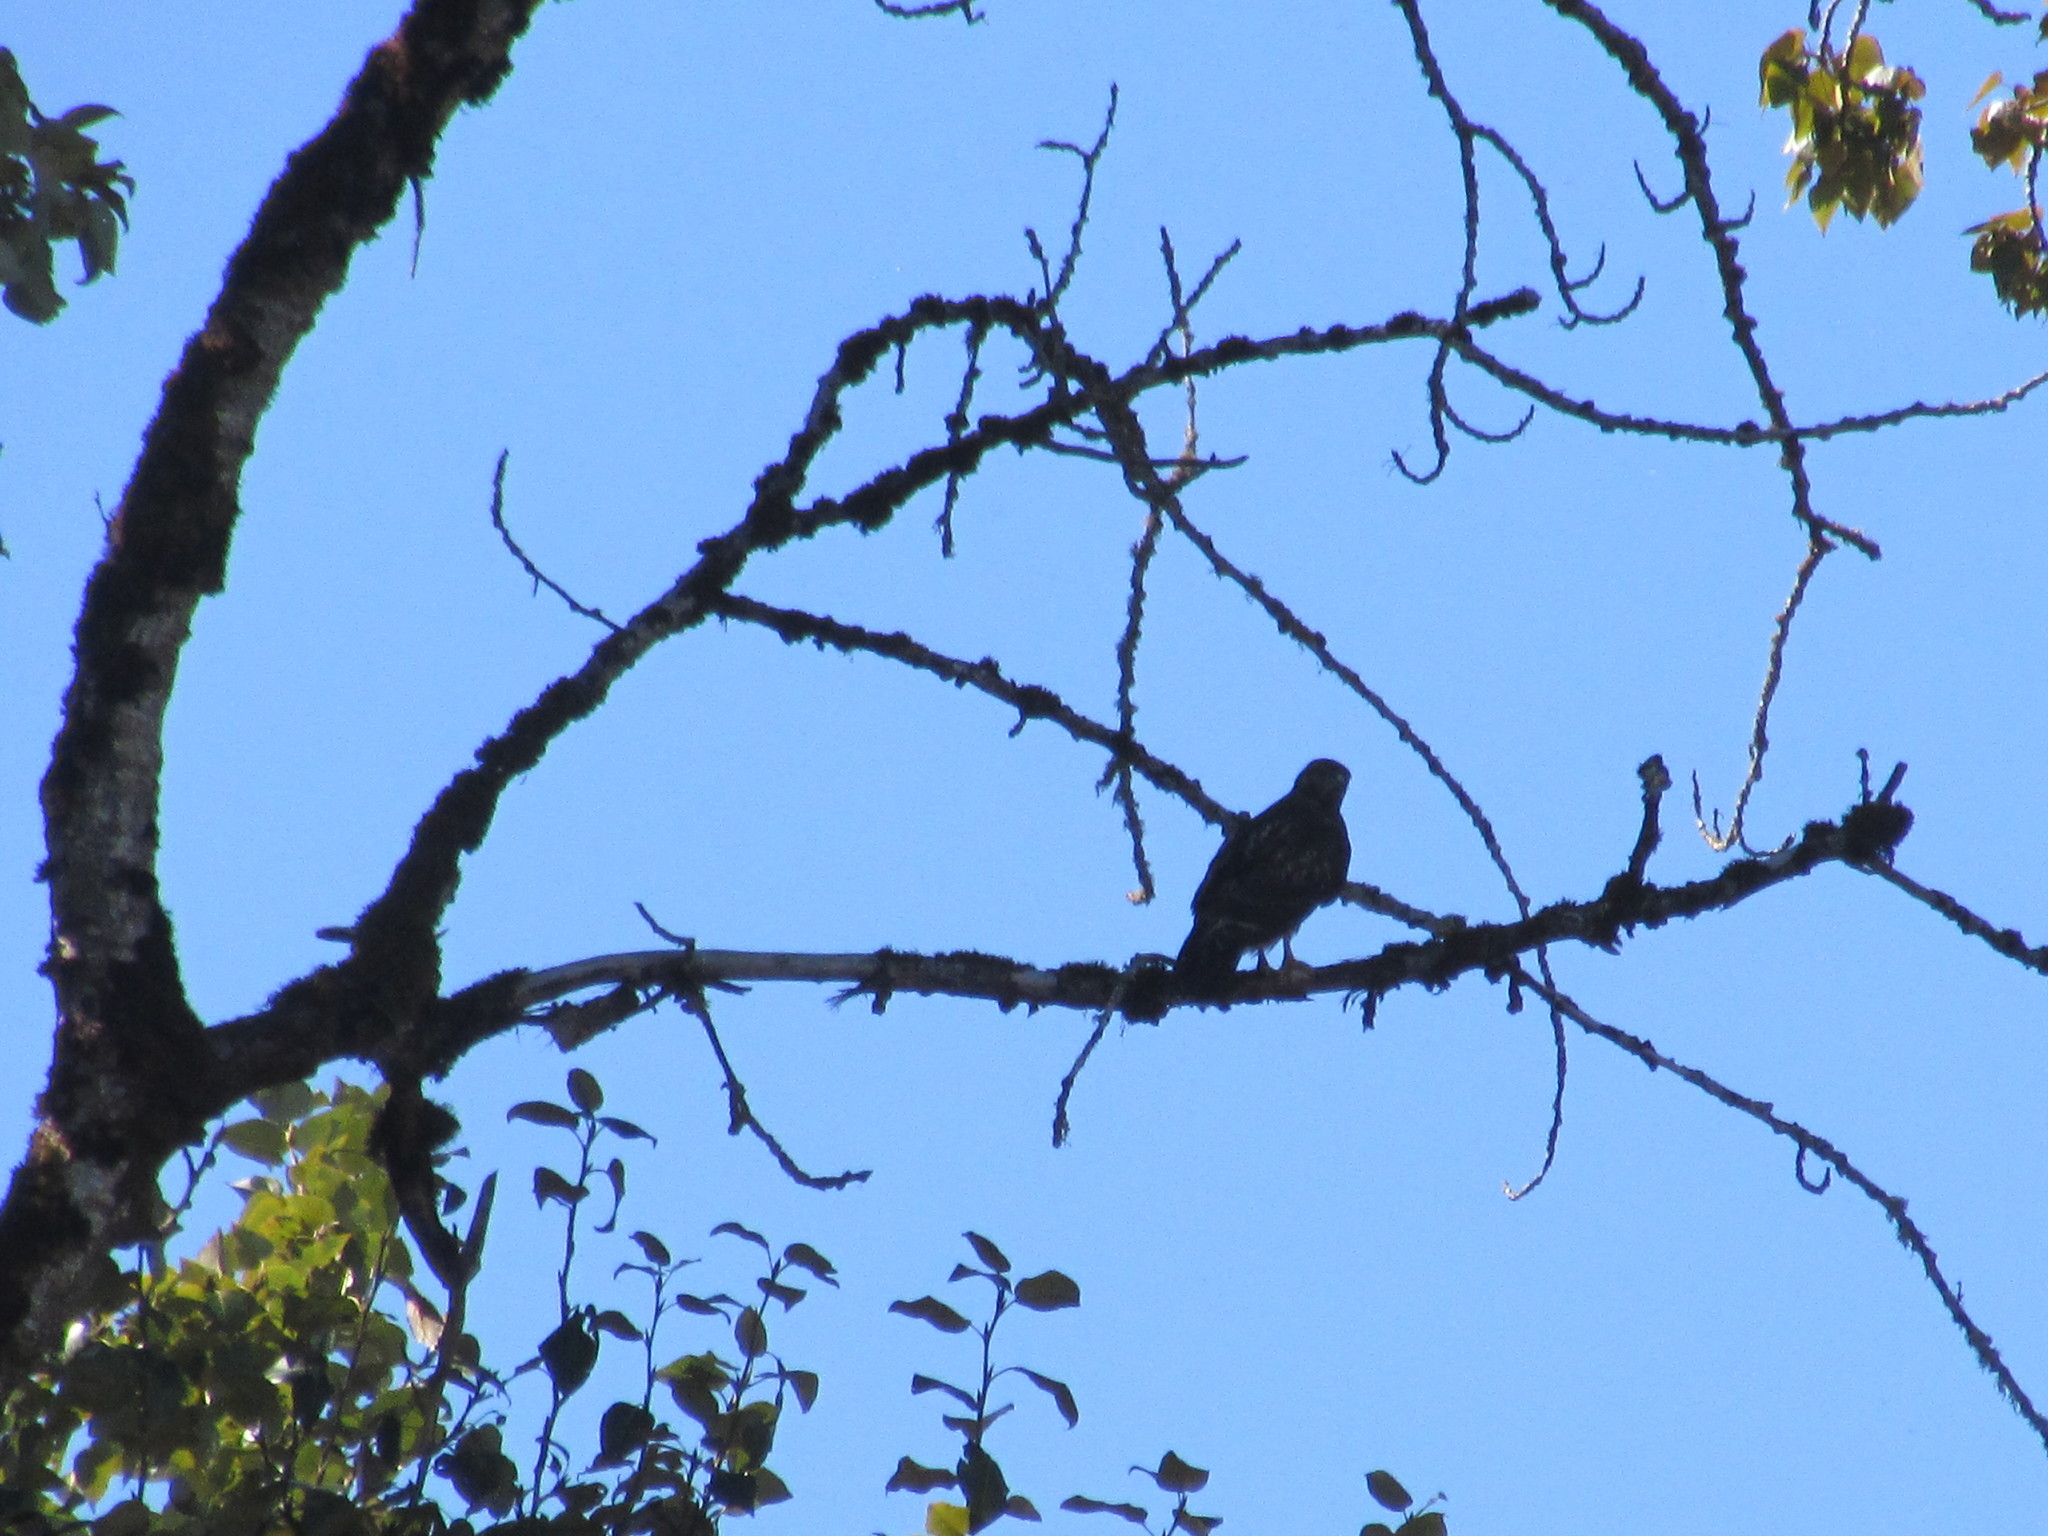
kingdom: Animalia
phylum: Chordata
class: Aves
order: Accipitriformes
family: Accipitridae
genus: Buteo
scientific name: Buteo jamaicensis
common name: Red-tailed hawk
